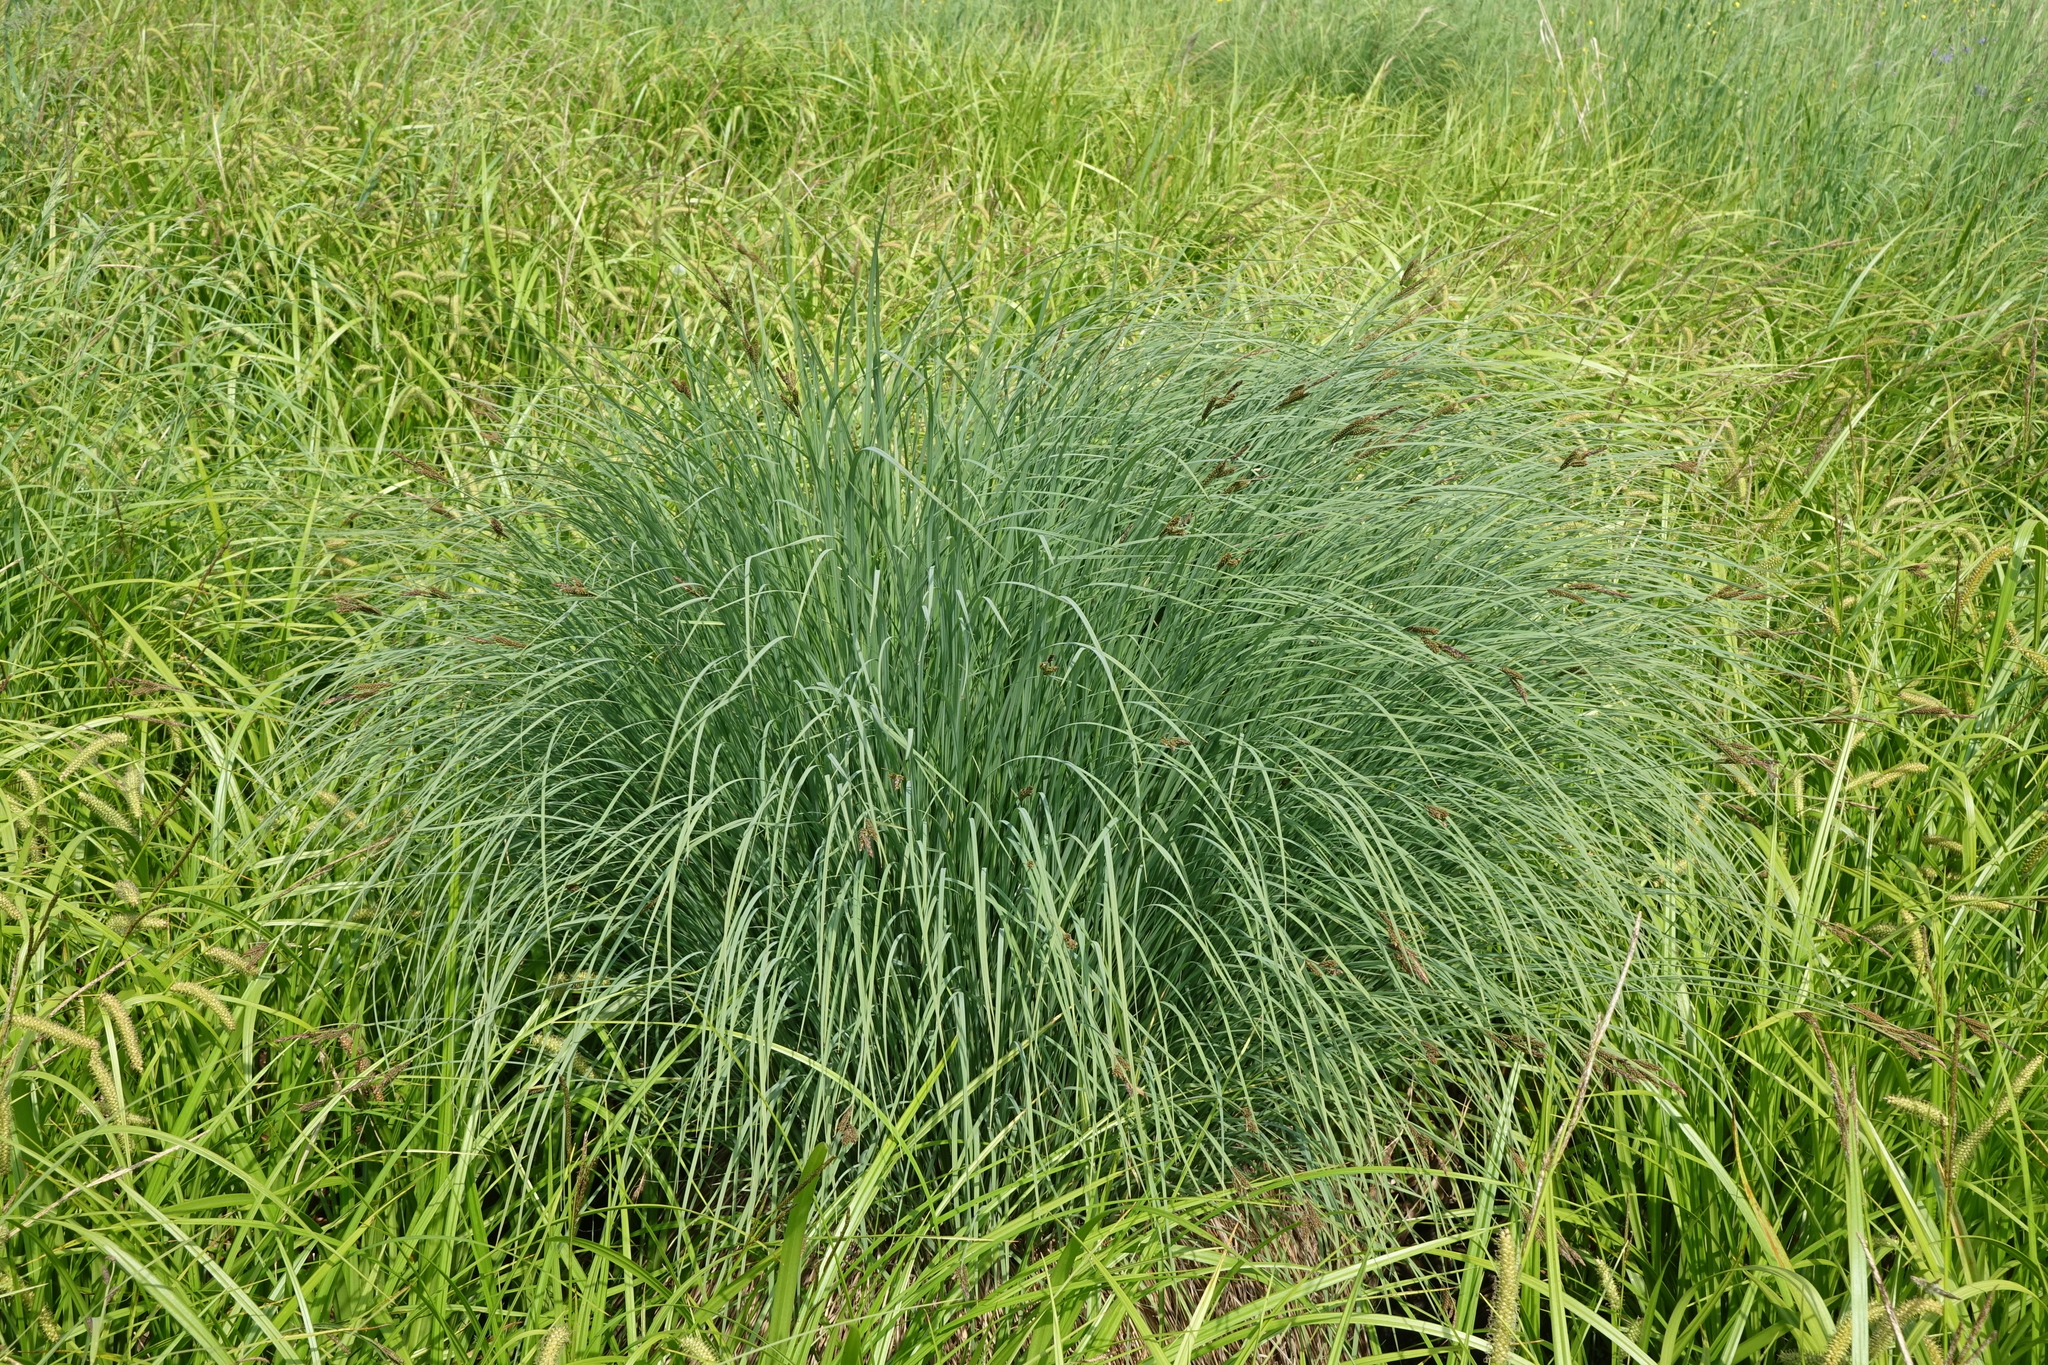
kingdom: Plantae
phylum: Tracheophyta
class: Liliopsida
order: Poales
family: Cyperaceae
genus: Carex
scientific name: Carex nigra
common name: Common sedge
